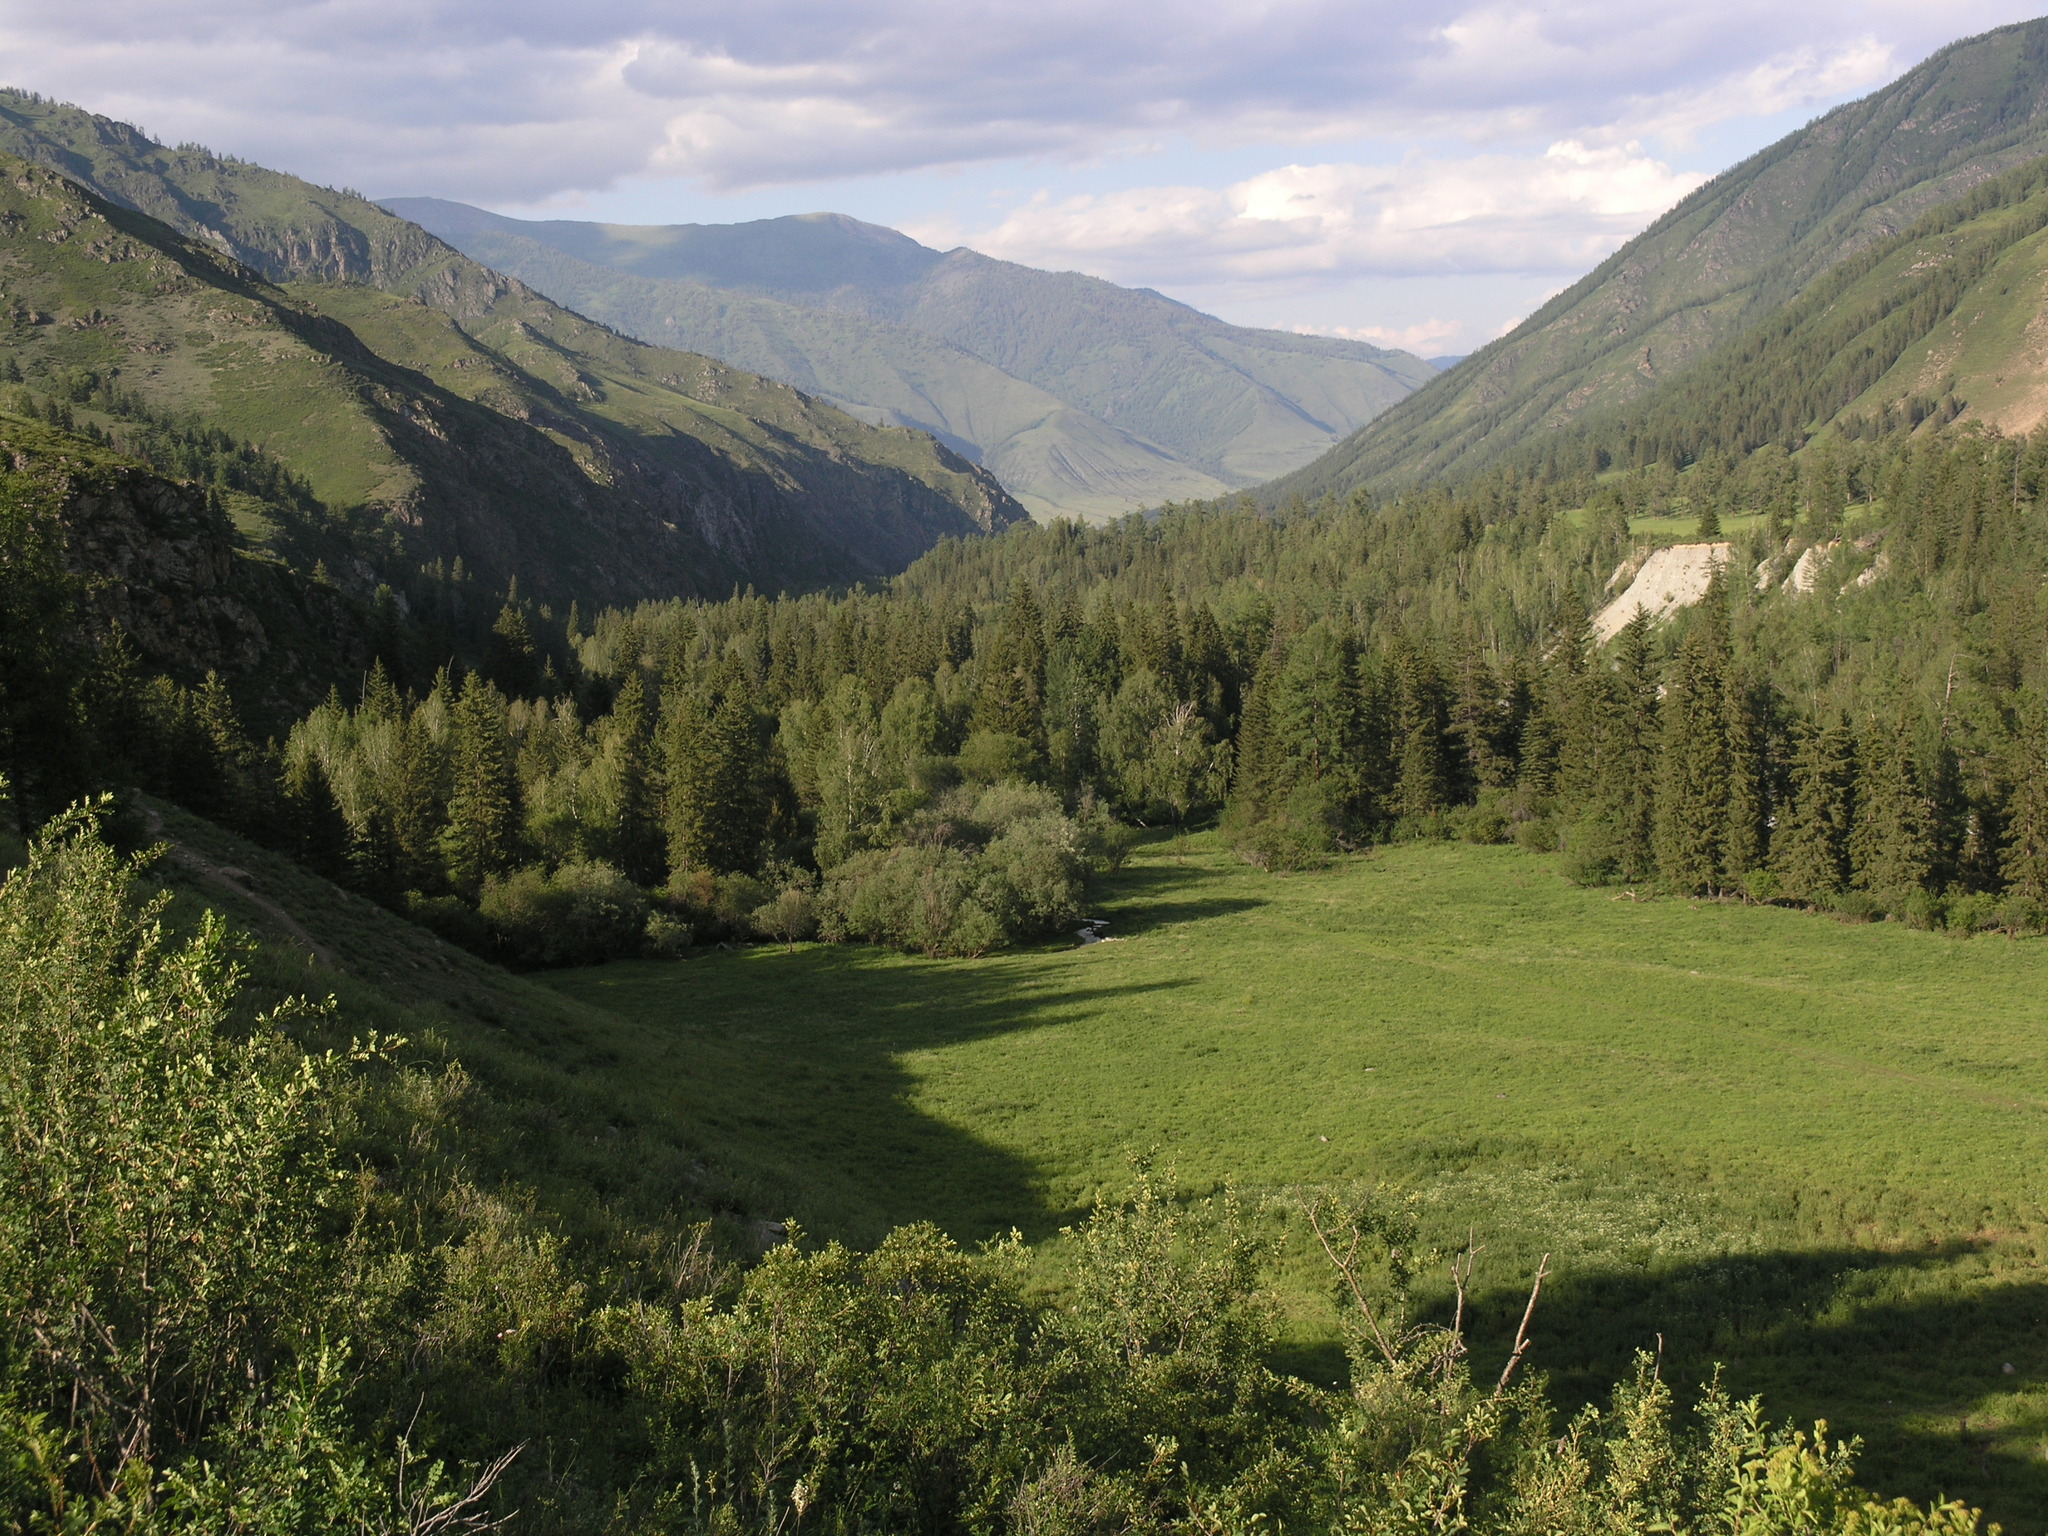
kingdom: Plantae
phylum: Tracheophyta
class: Pinopsida
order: Pinales
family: Pinaceae
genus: Picea
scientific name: Picea obovata
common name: Siberian spruce
